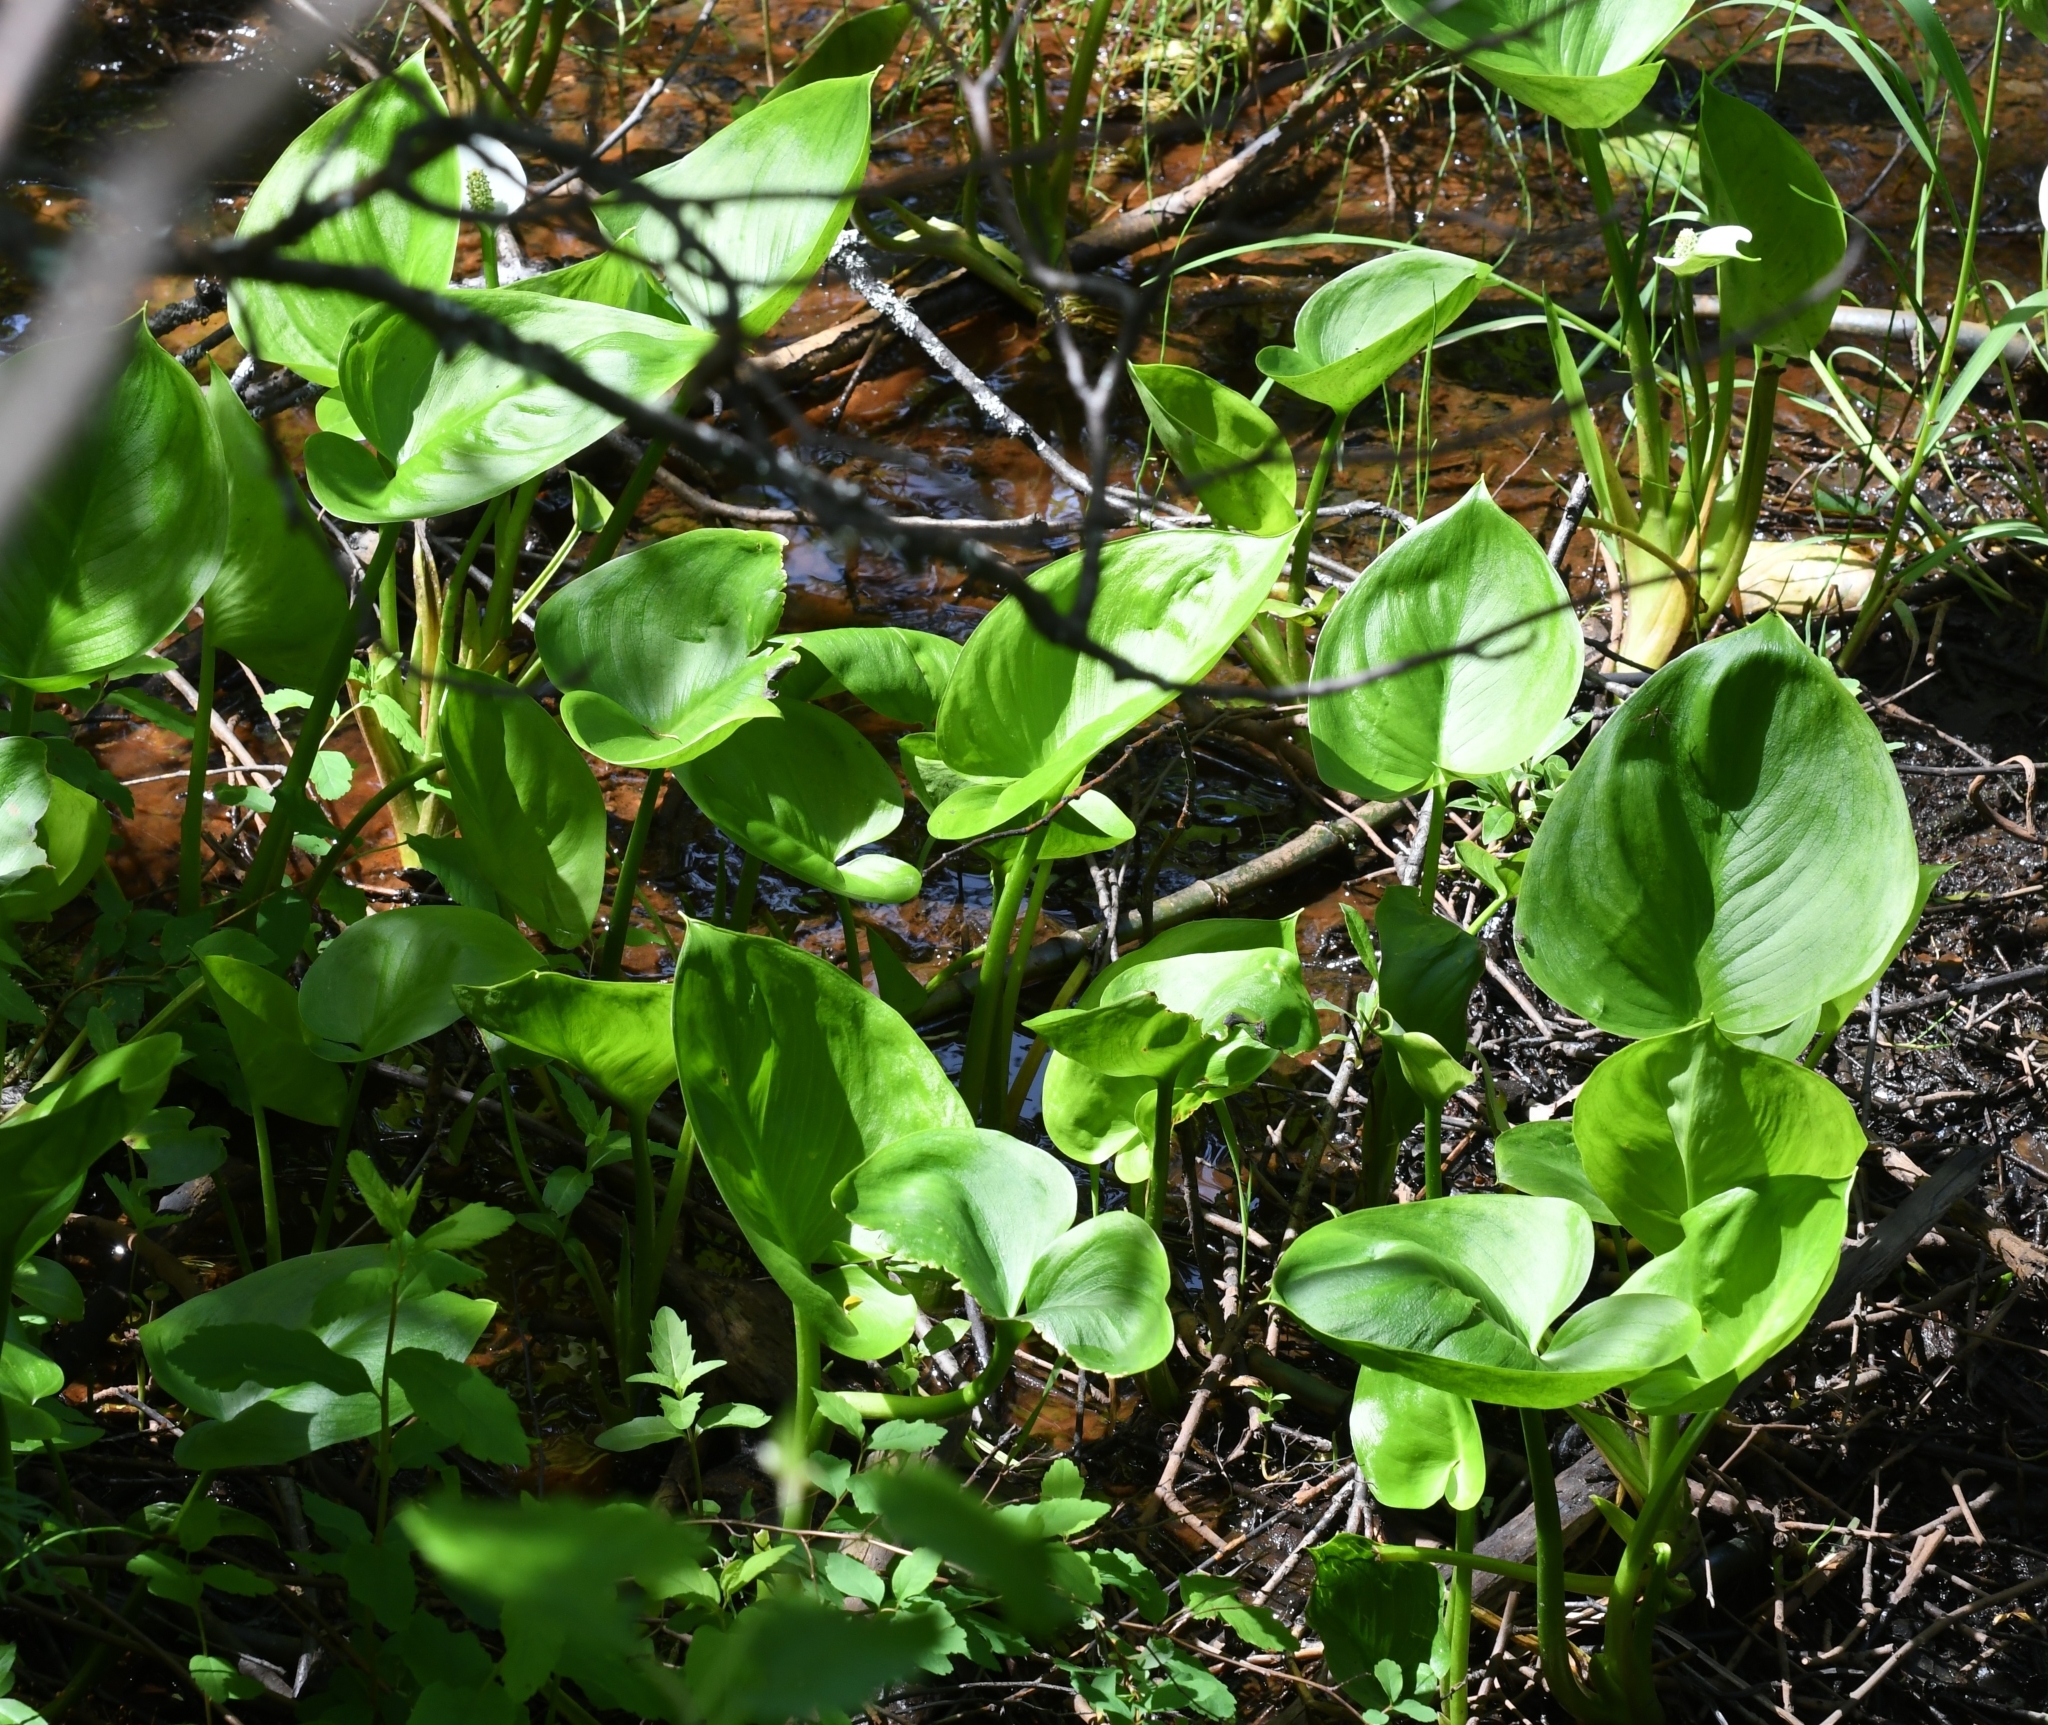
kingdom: Plantae
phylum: Tracheophyta
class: Liliopsida
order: Alismatales
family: Araceae
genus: Calla
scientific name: Calla palustris
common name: Bog arum
